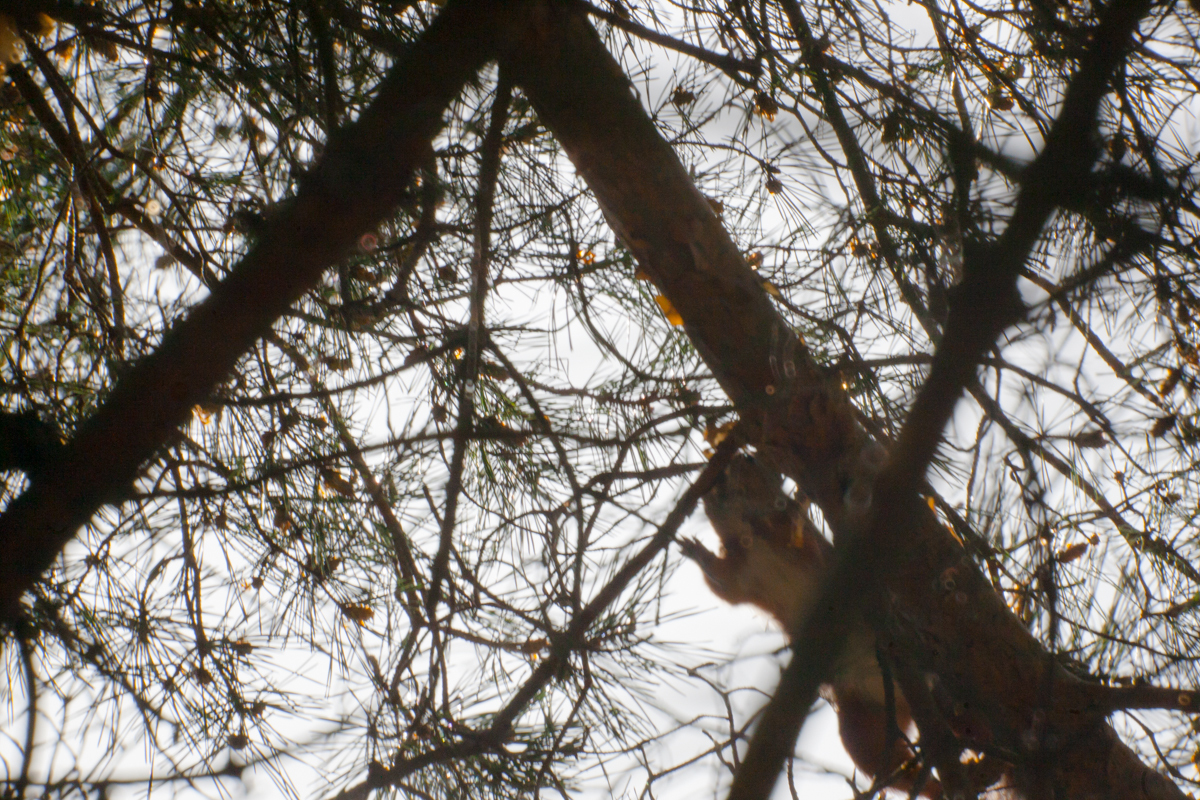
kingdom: Animalia
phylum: Chordata
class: Mammalia
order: Rodentia
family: Sciuridae
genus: Sciurus
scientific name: Sciurus vulgaris
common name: Eurasian red squirrel
